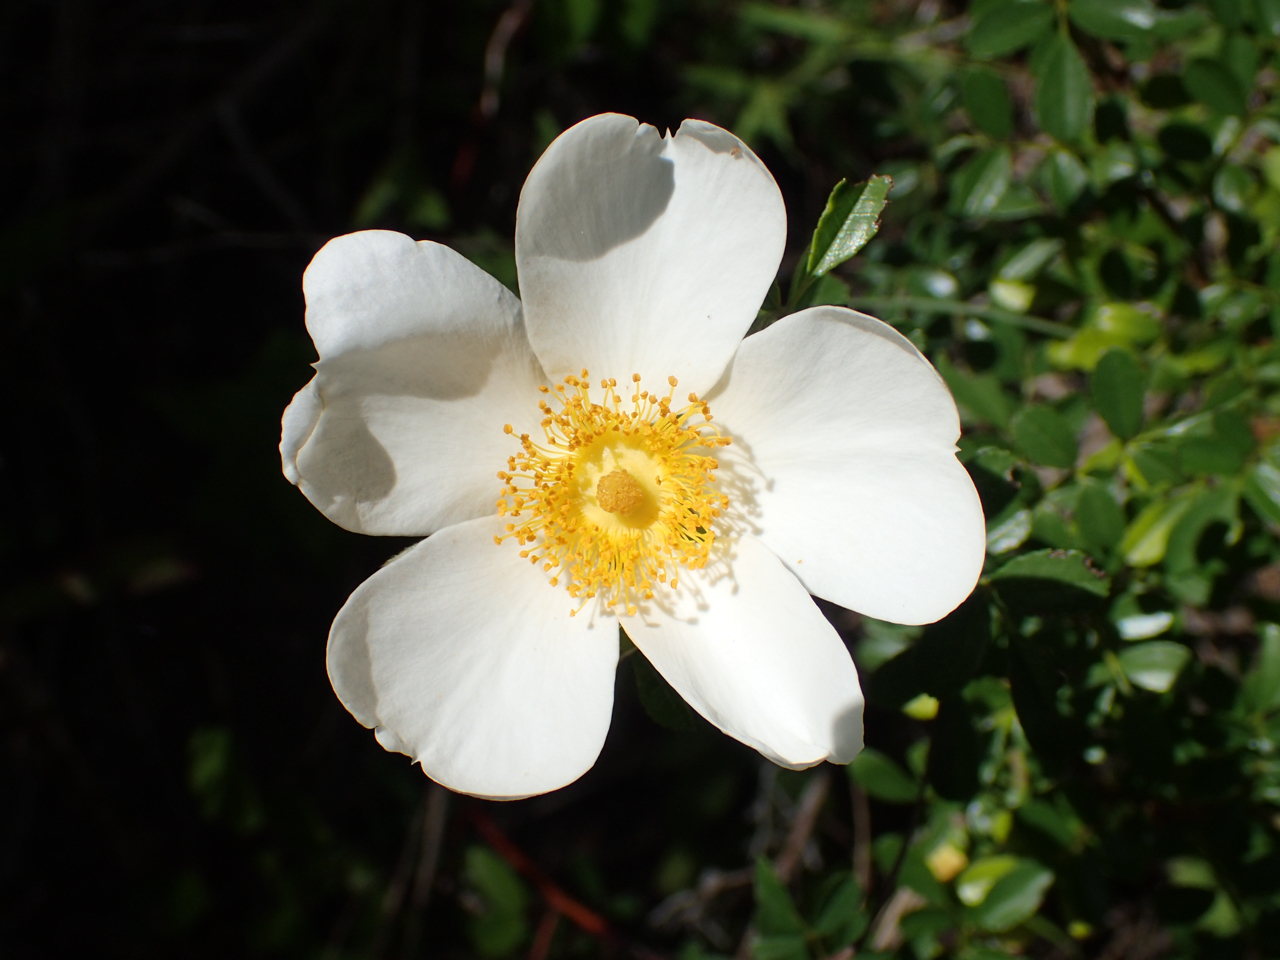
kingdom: Plantae
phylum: Tracheophyta
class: Magnoliopsida
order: Rosales
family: Rosaceae
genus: Rosa
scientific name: Rosa bracteata
